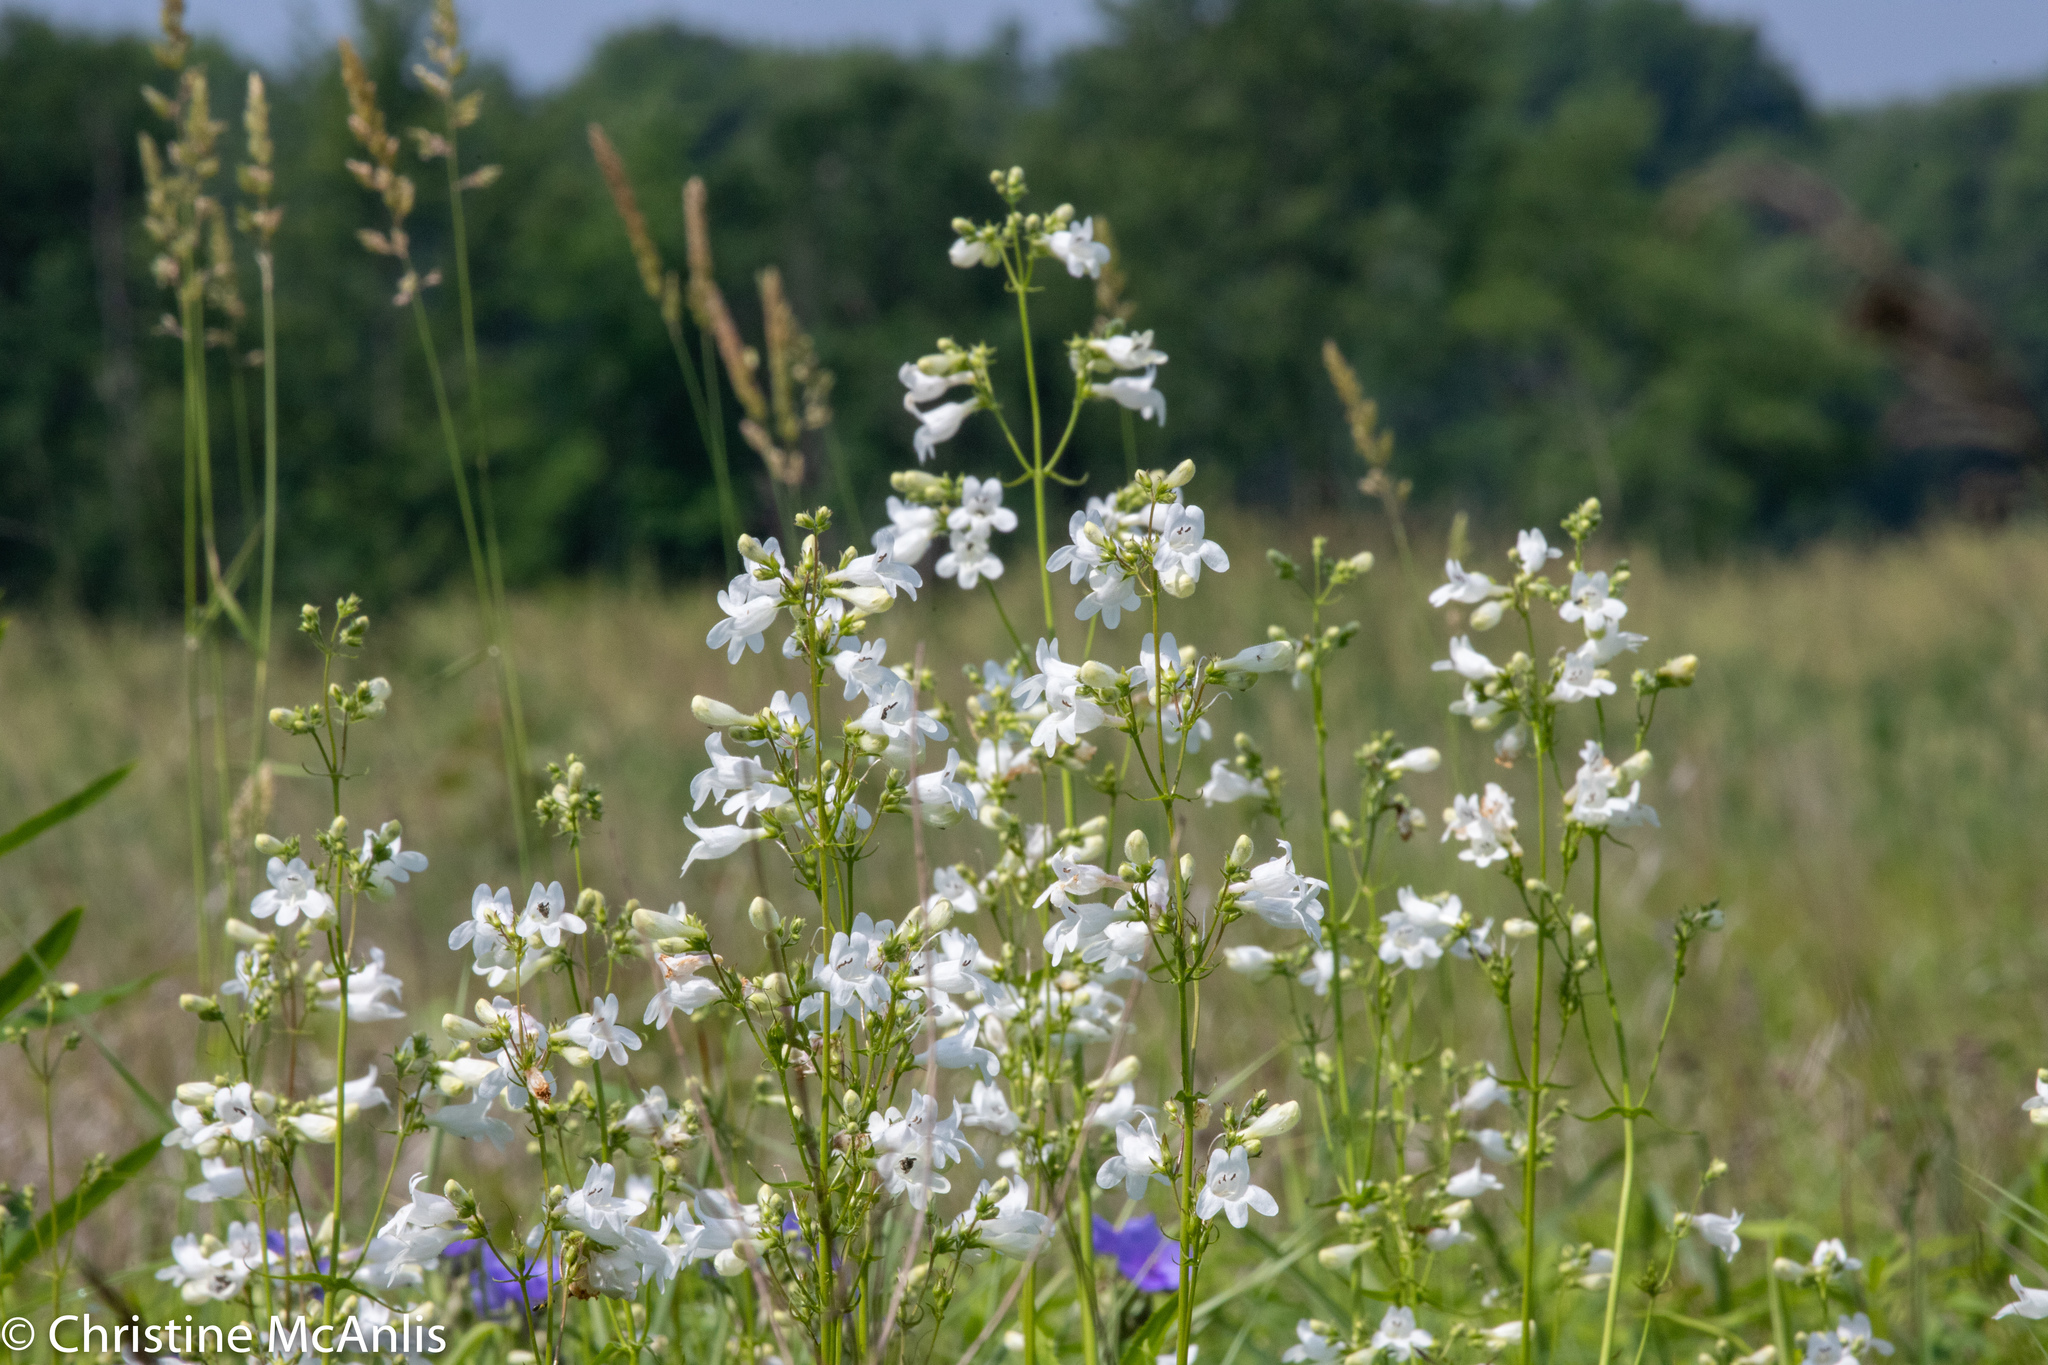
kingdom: Plantae
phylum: Tracheophyta
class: Magnoliopsida
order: Lamiales
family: Plantaginaceae
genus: Penstemon
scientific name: Penstemon digitalis
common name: Foxglove beardtongue
